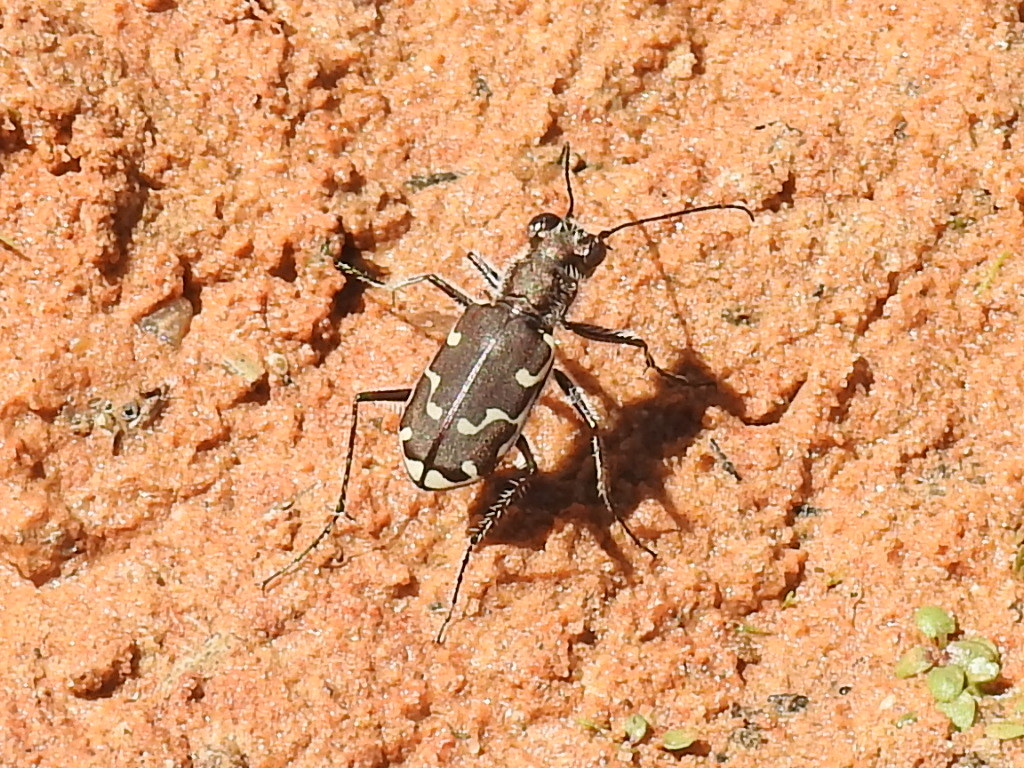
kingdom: Animalia
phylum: Arthropoda
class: Insecta
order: Coleoptera
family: Carabidae
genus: Cicindela
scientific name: Cicindela repanda
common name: Bronzed tiger beetle
